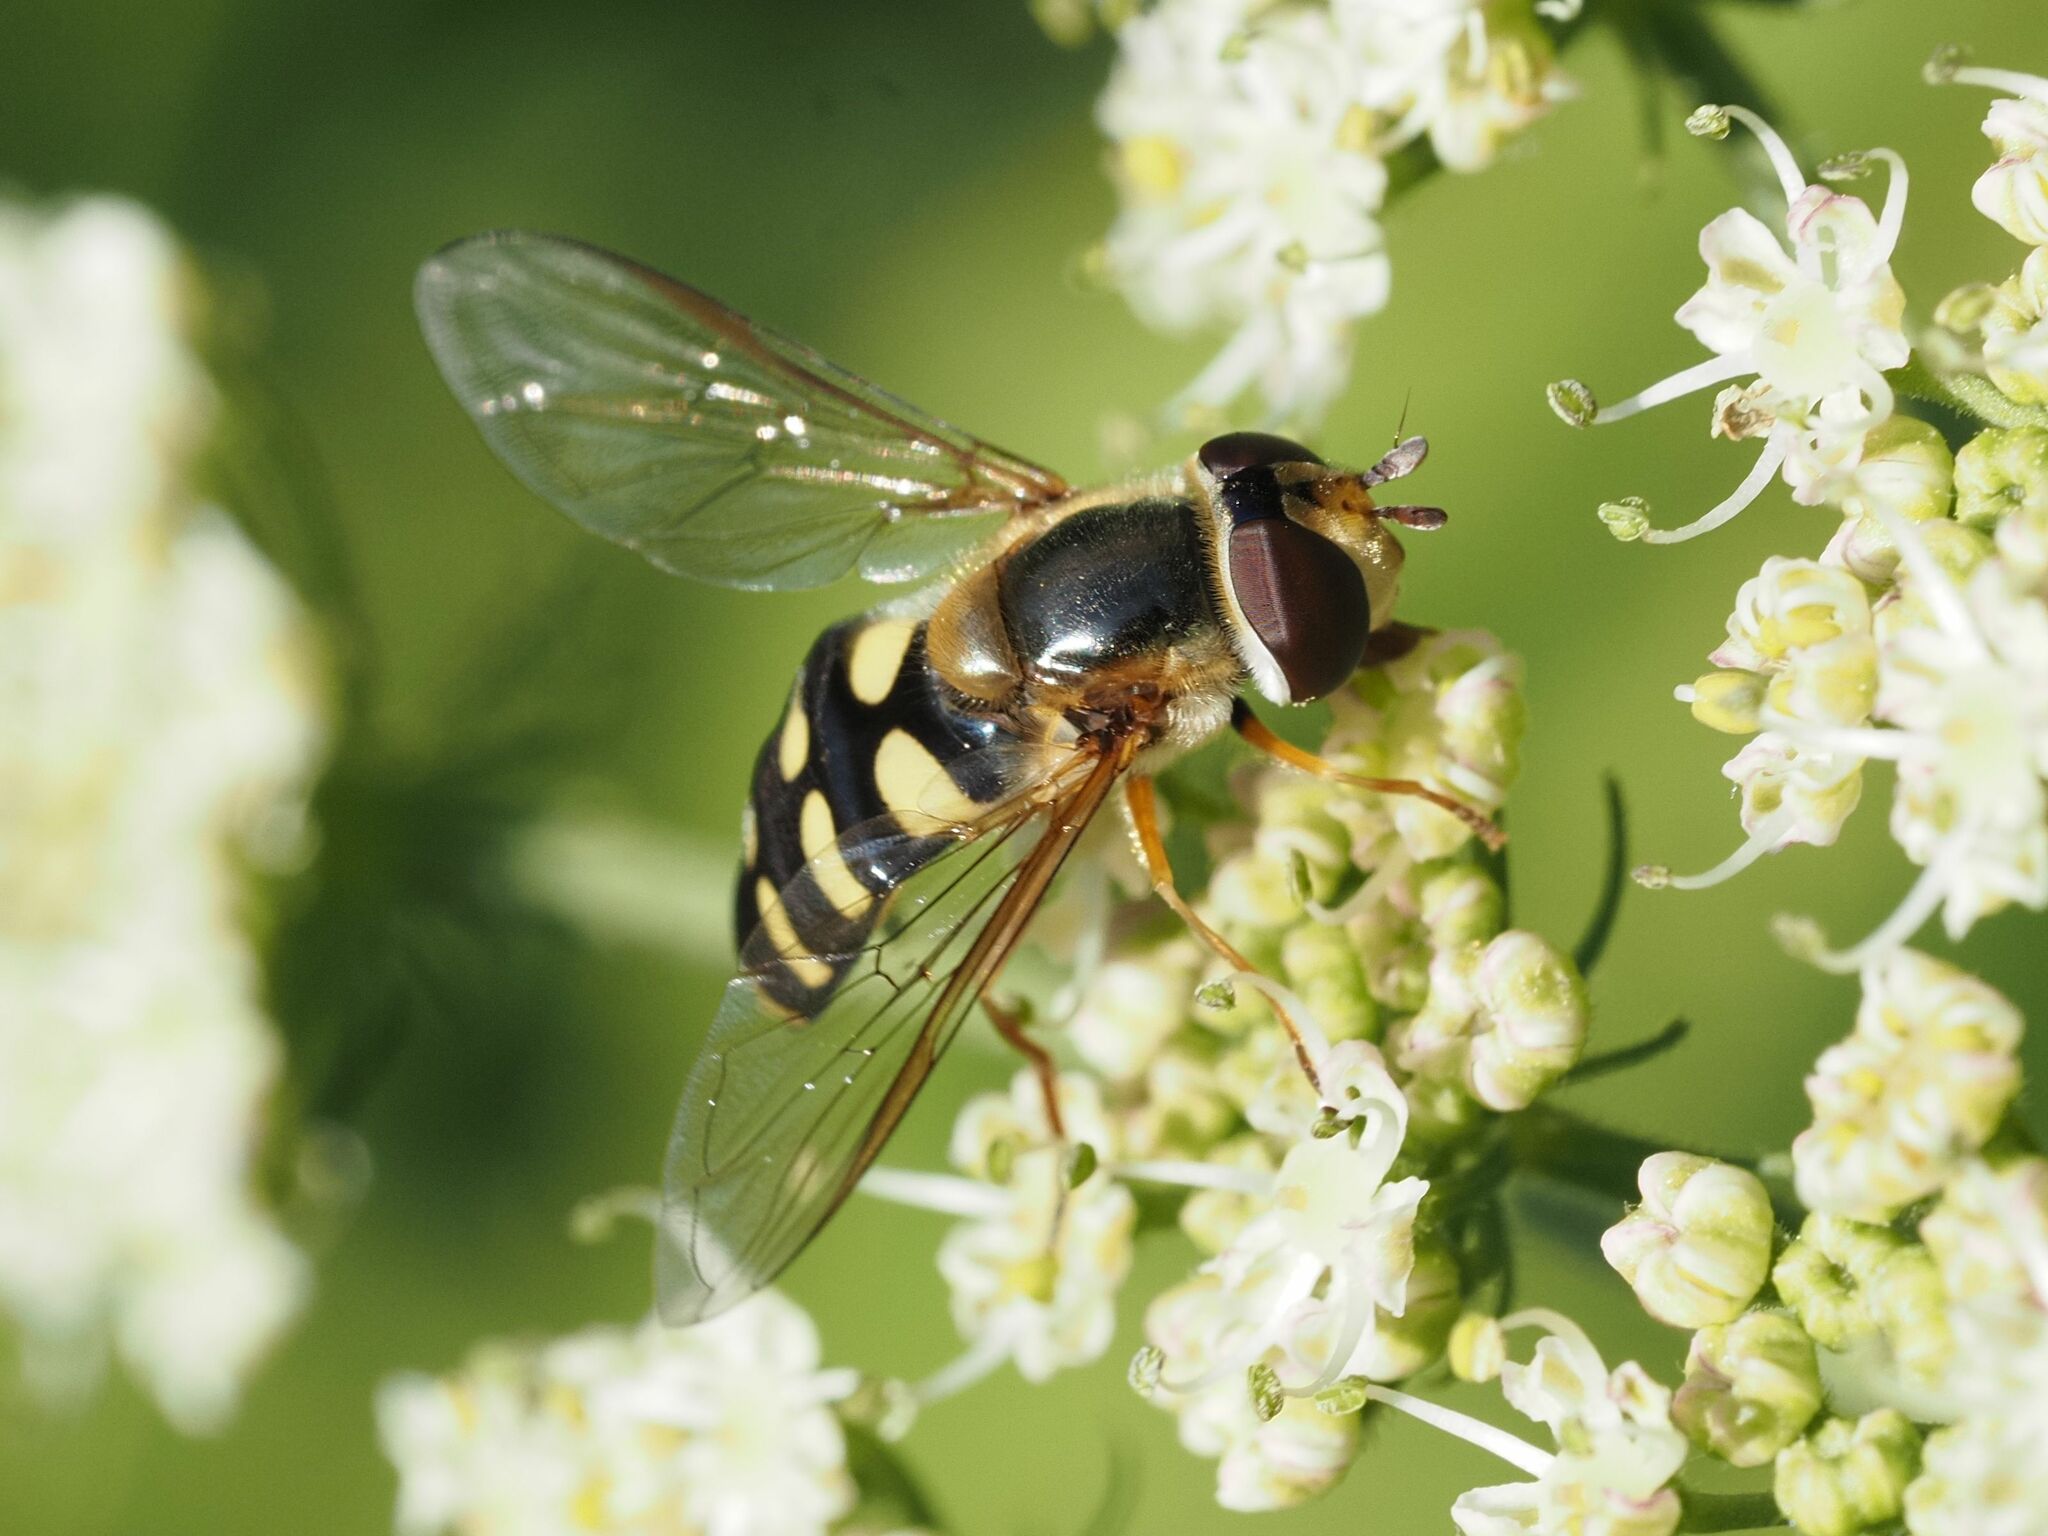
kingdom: Animalia
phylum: Arthropoda
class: Insecta
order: Diptera
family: Syrphidae
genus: Eupeodes
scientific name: Eupeodes luniger
